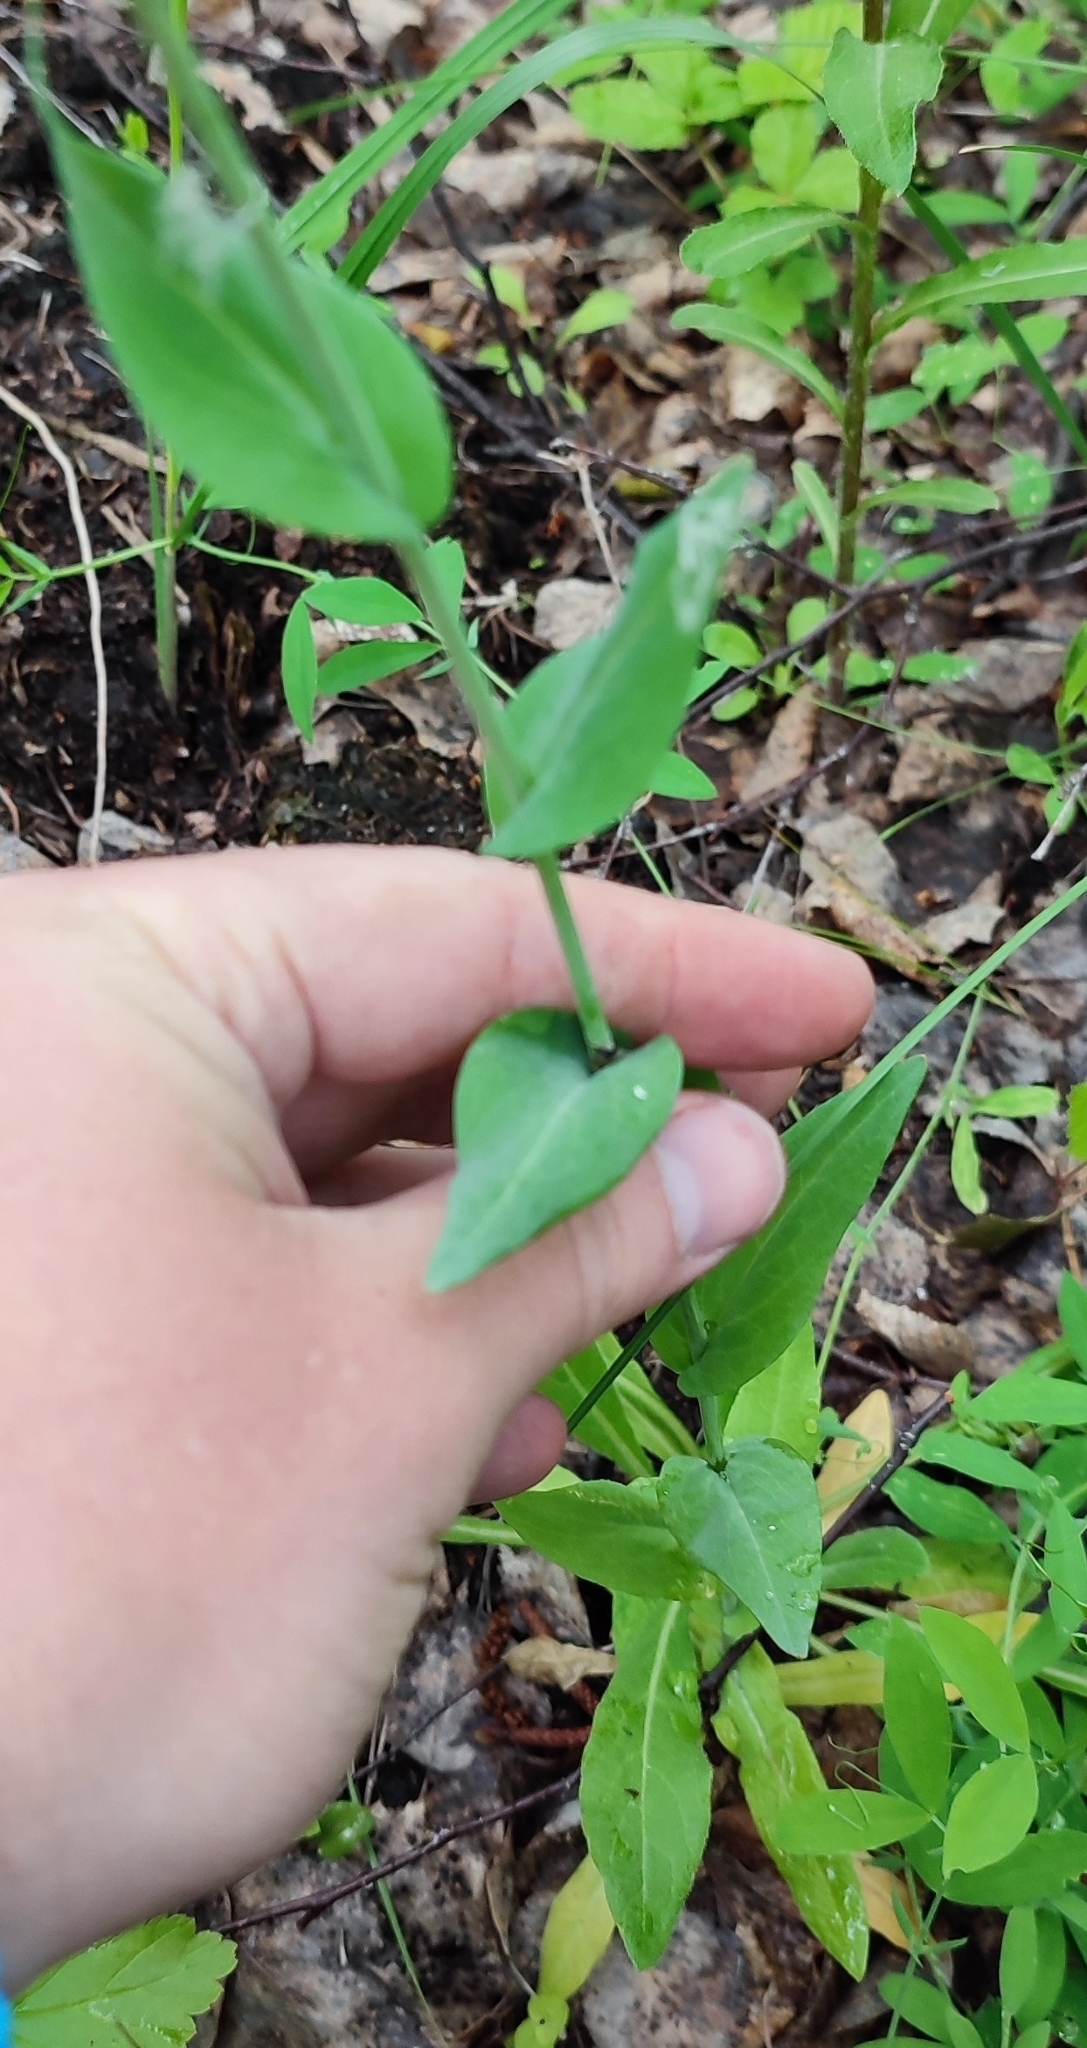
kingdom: Plantae
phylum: Tracheophyta
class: Magnoliopsida
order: Brassicales
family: Brassicaceae
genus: Turritis
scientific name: Turritis glabra
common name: Tower rockcress
